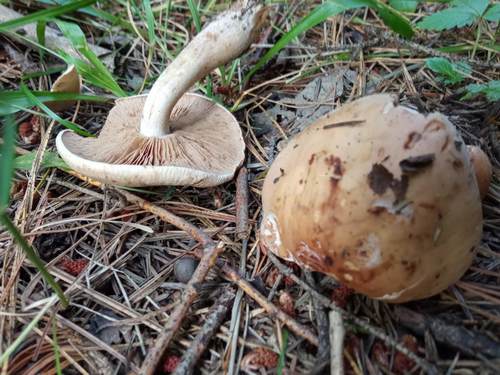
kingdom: Fungi
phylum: Basidiomycota
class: Agaricomycetes
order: Agaricales
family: Hymenogastraceae
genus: Hebeloma
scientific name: Hebeloma crustuliniforme
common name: Poison pie
